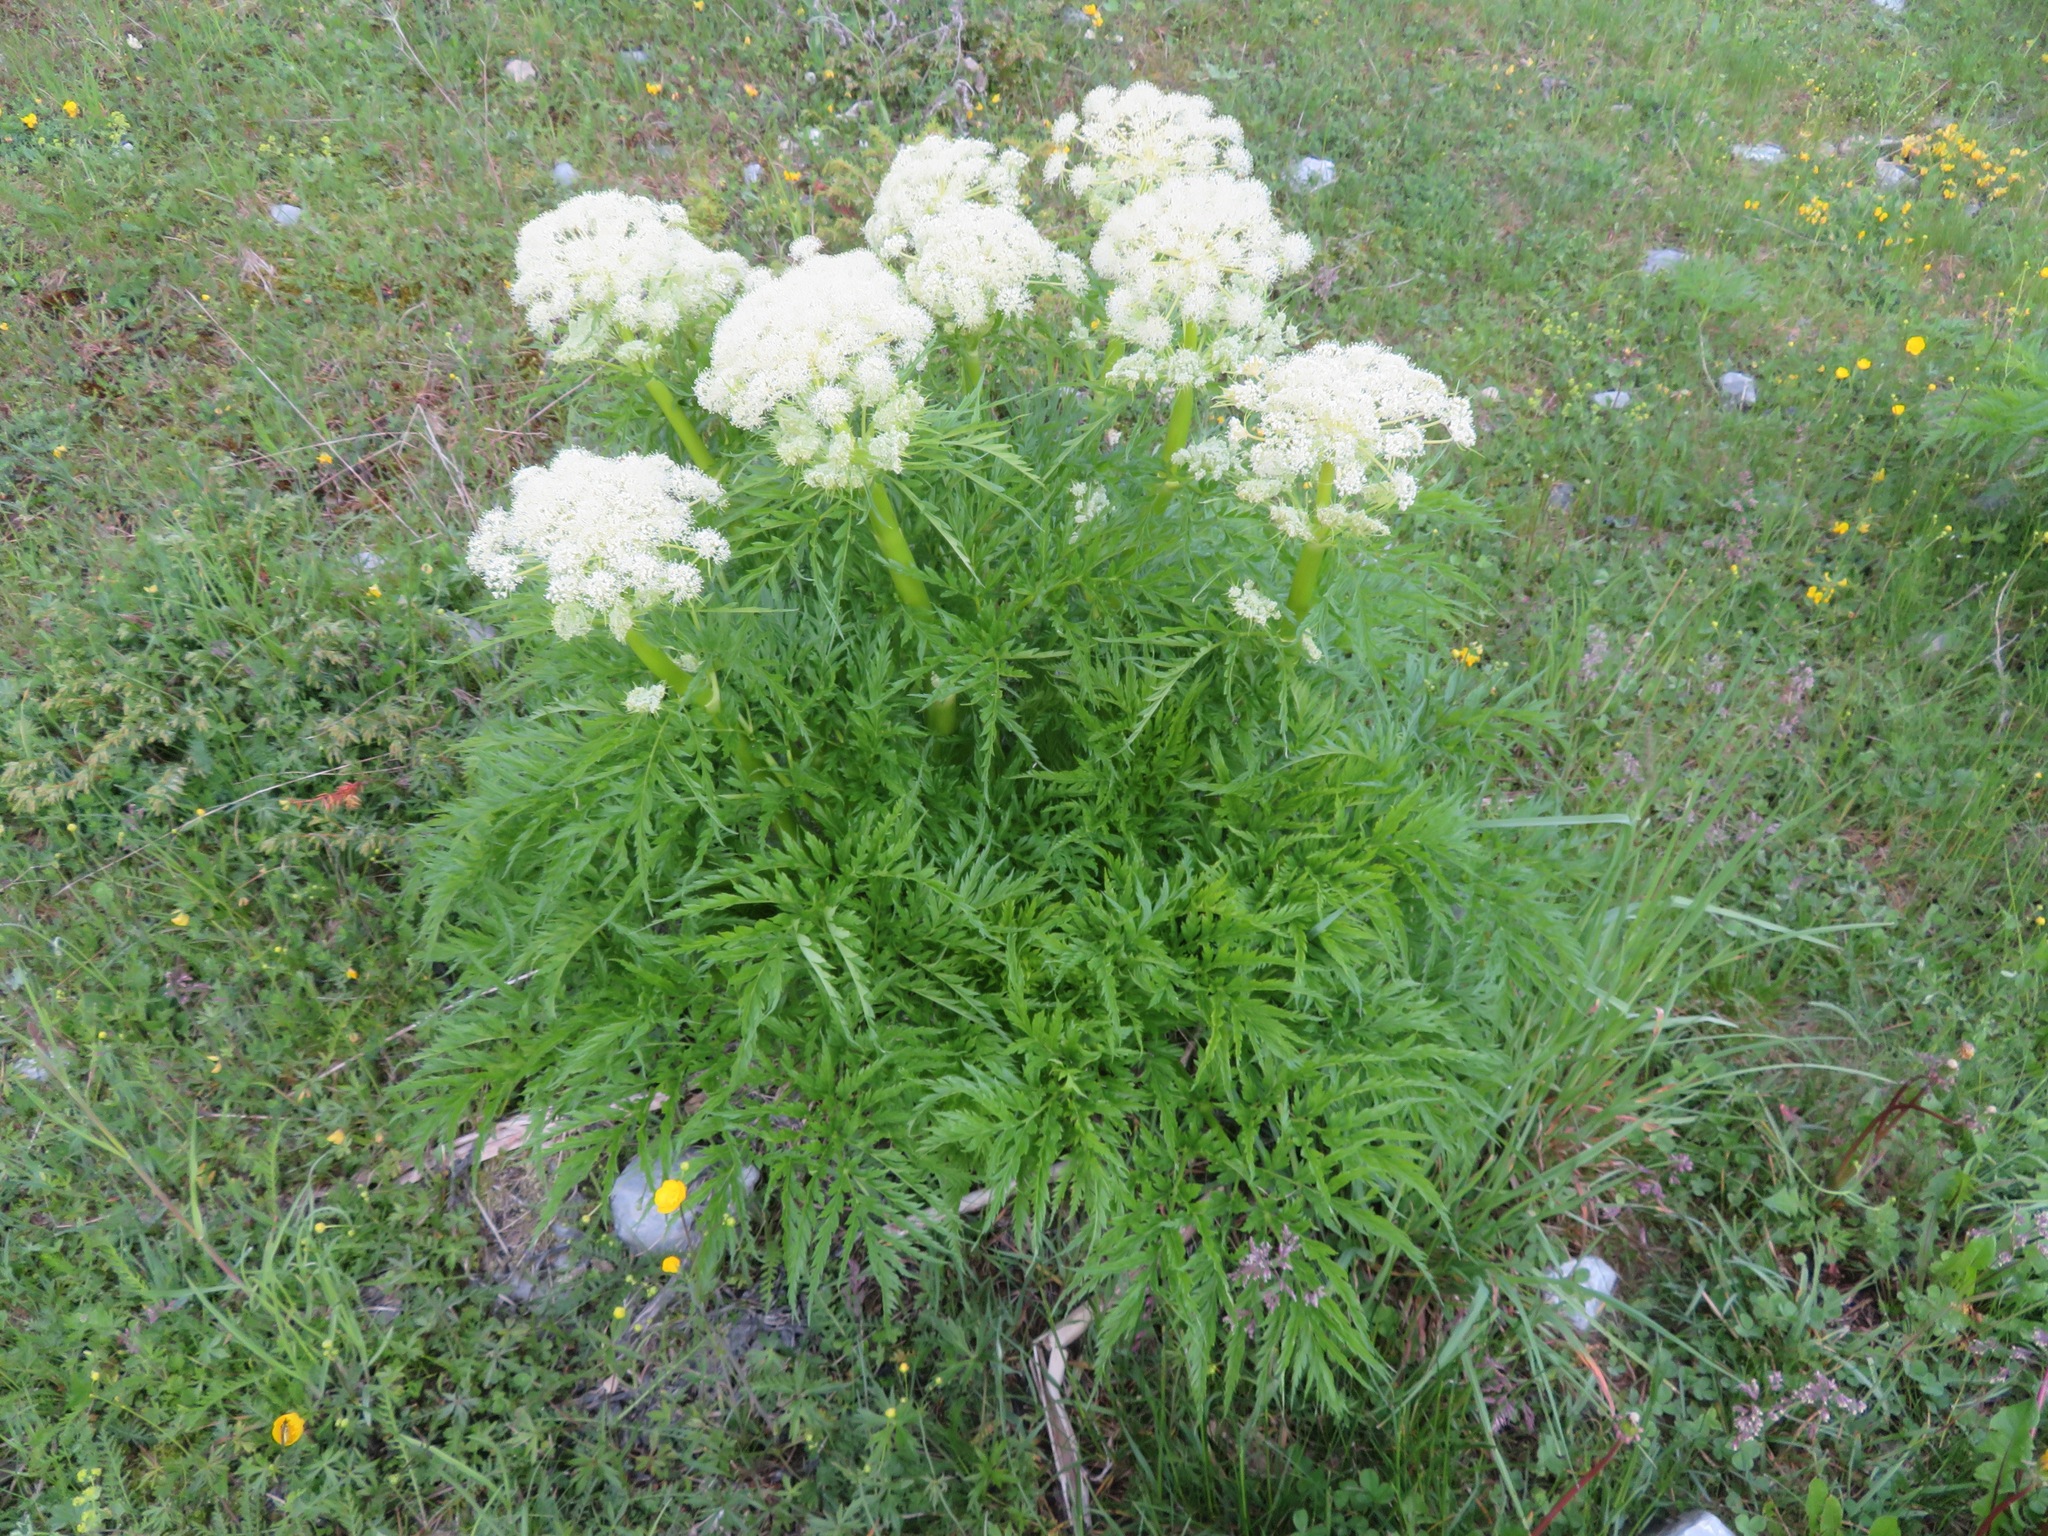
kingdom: Plantae
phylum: Tracheophyta
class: Magnoliopsida
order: Apiales
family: Apiaceae
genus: Molopospermum
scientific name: Molopospermum peloponnesiacum
